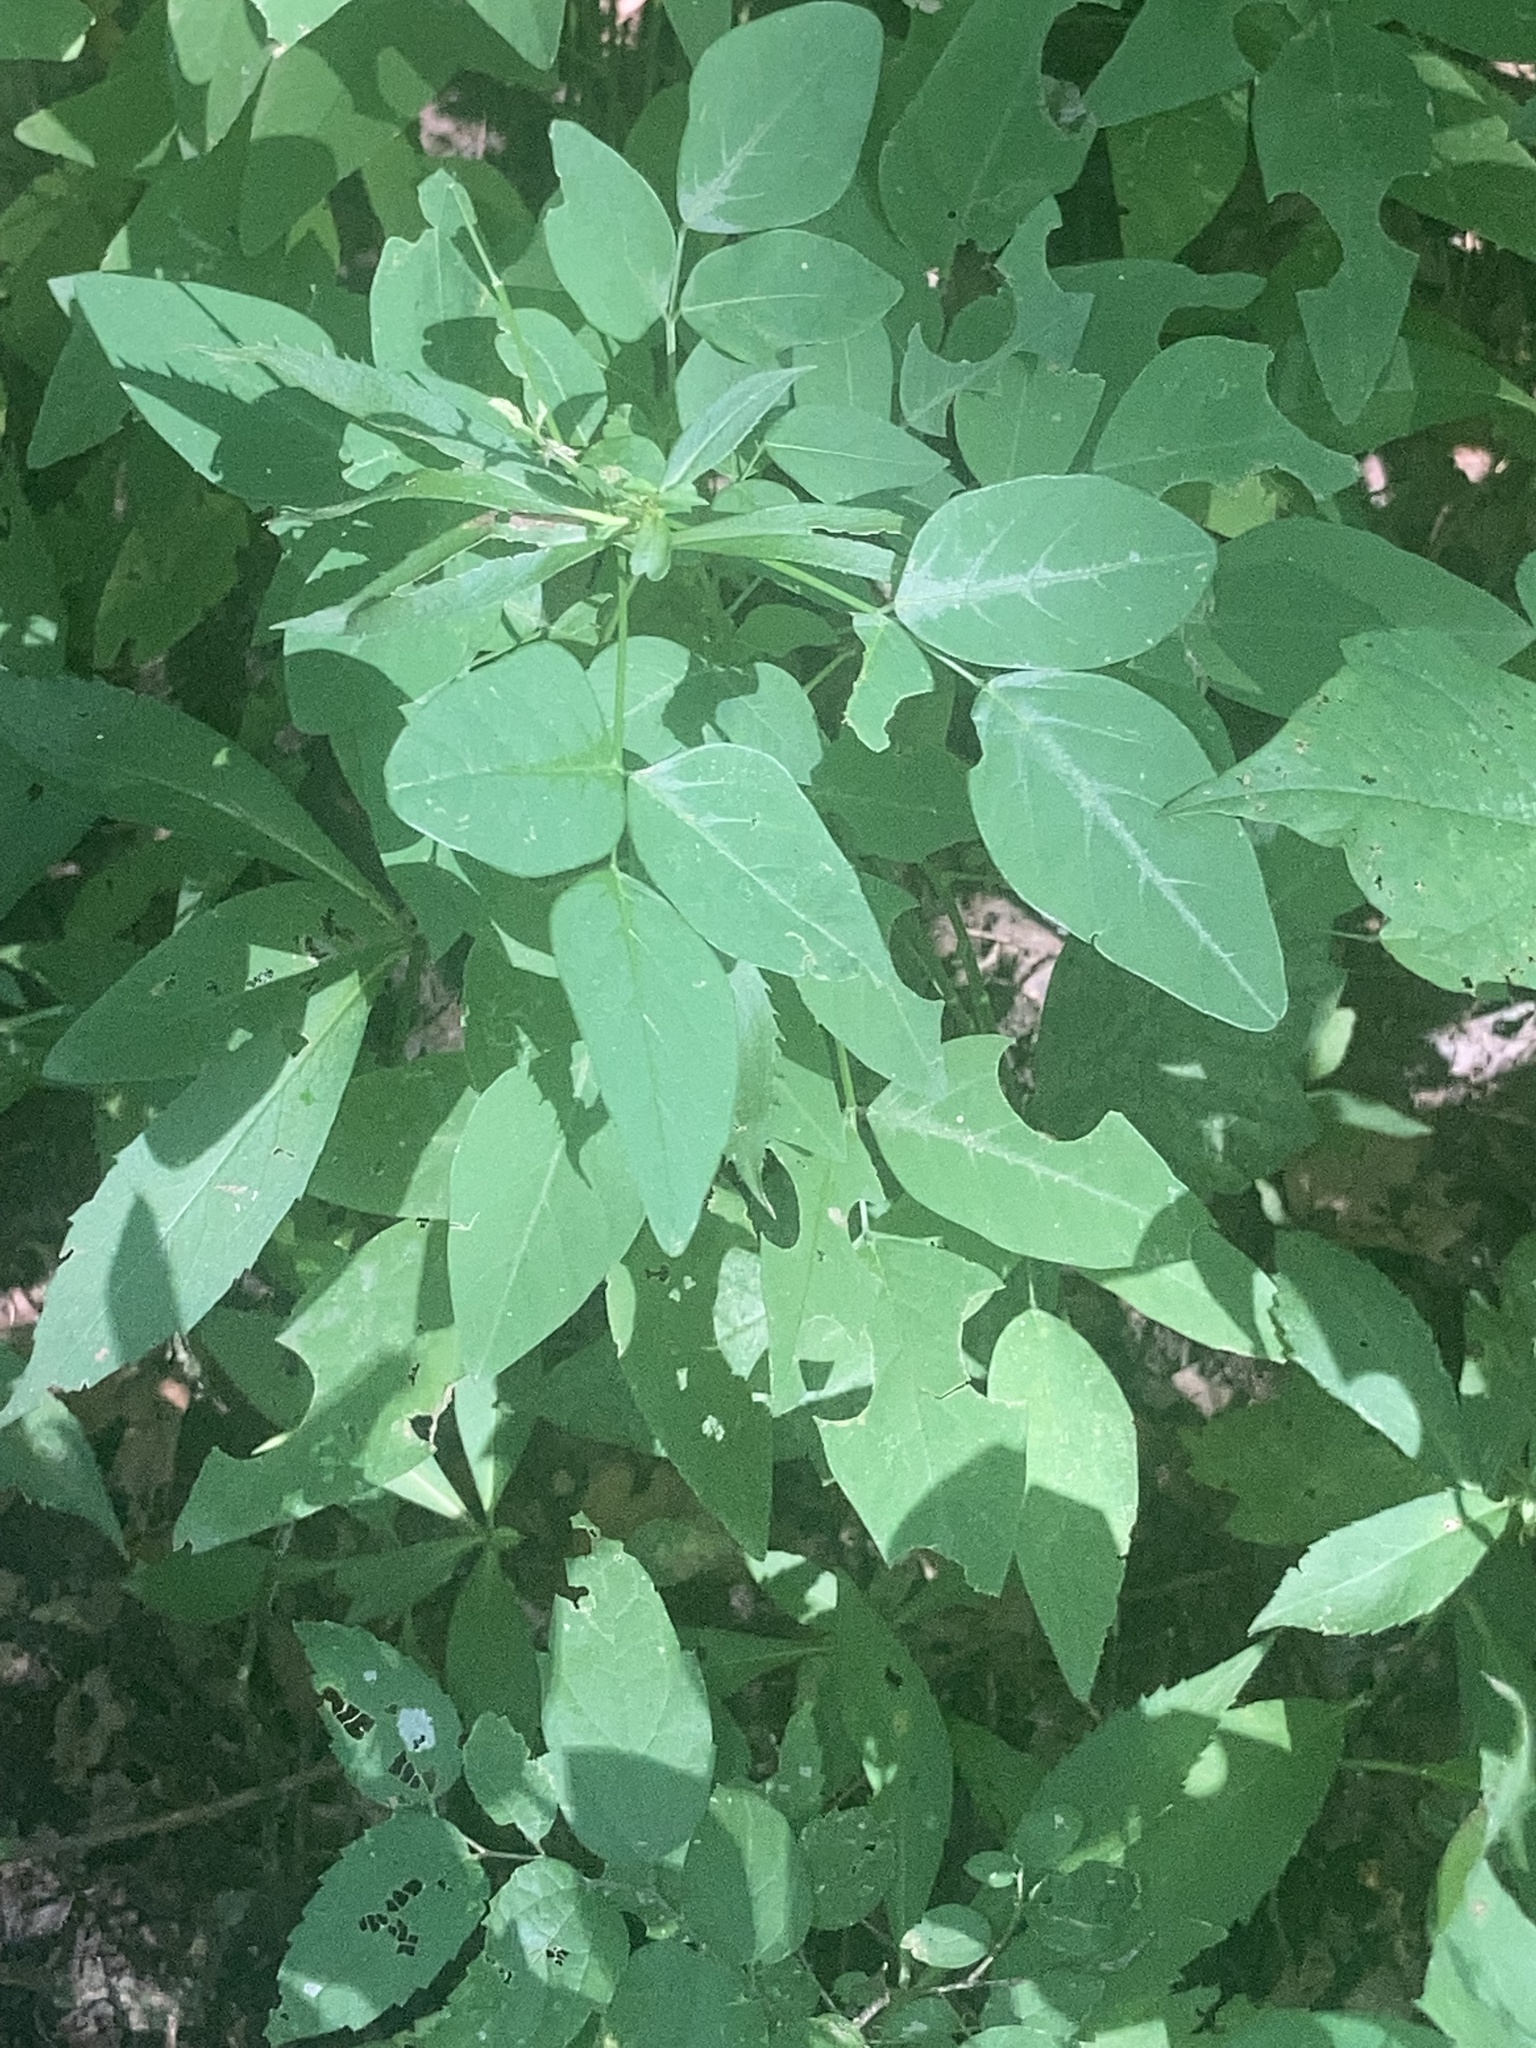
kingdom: Plantae
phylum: Tracheophyta
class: Magnoliopsida
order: Fabales
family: Fabaceae
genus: Desmodium
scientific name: Desmodium perplexum
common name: Perplexed tick trefoil
